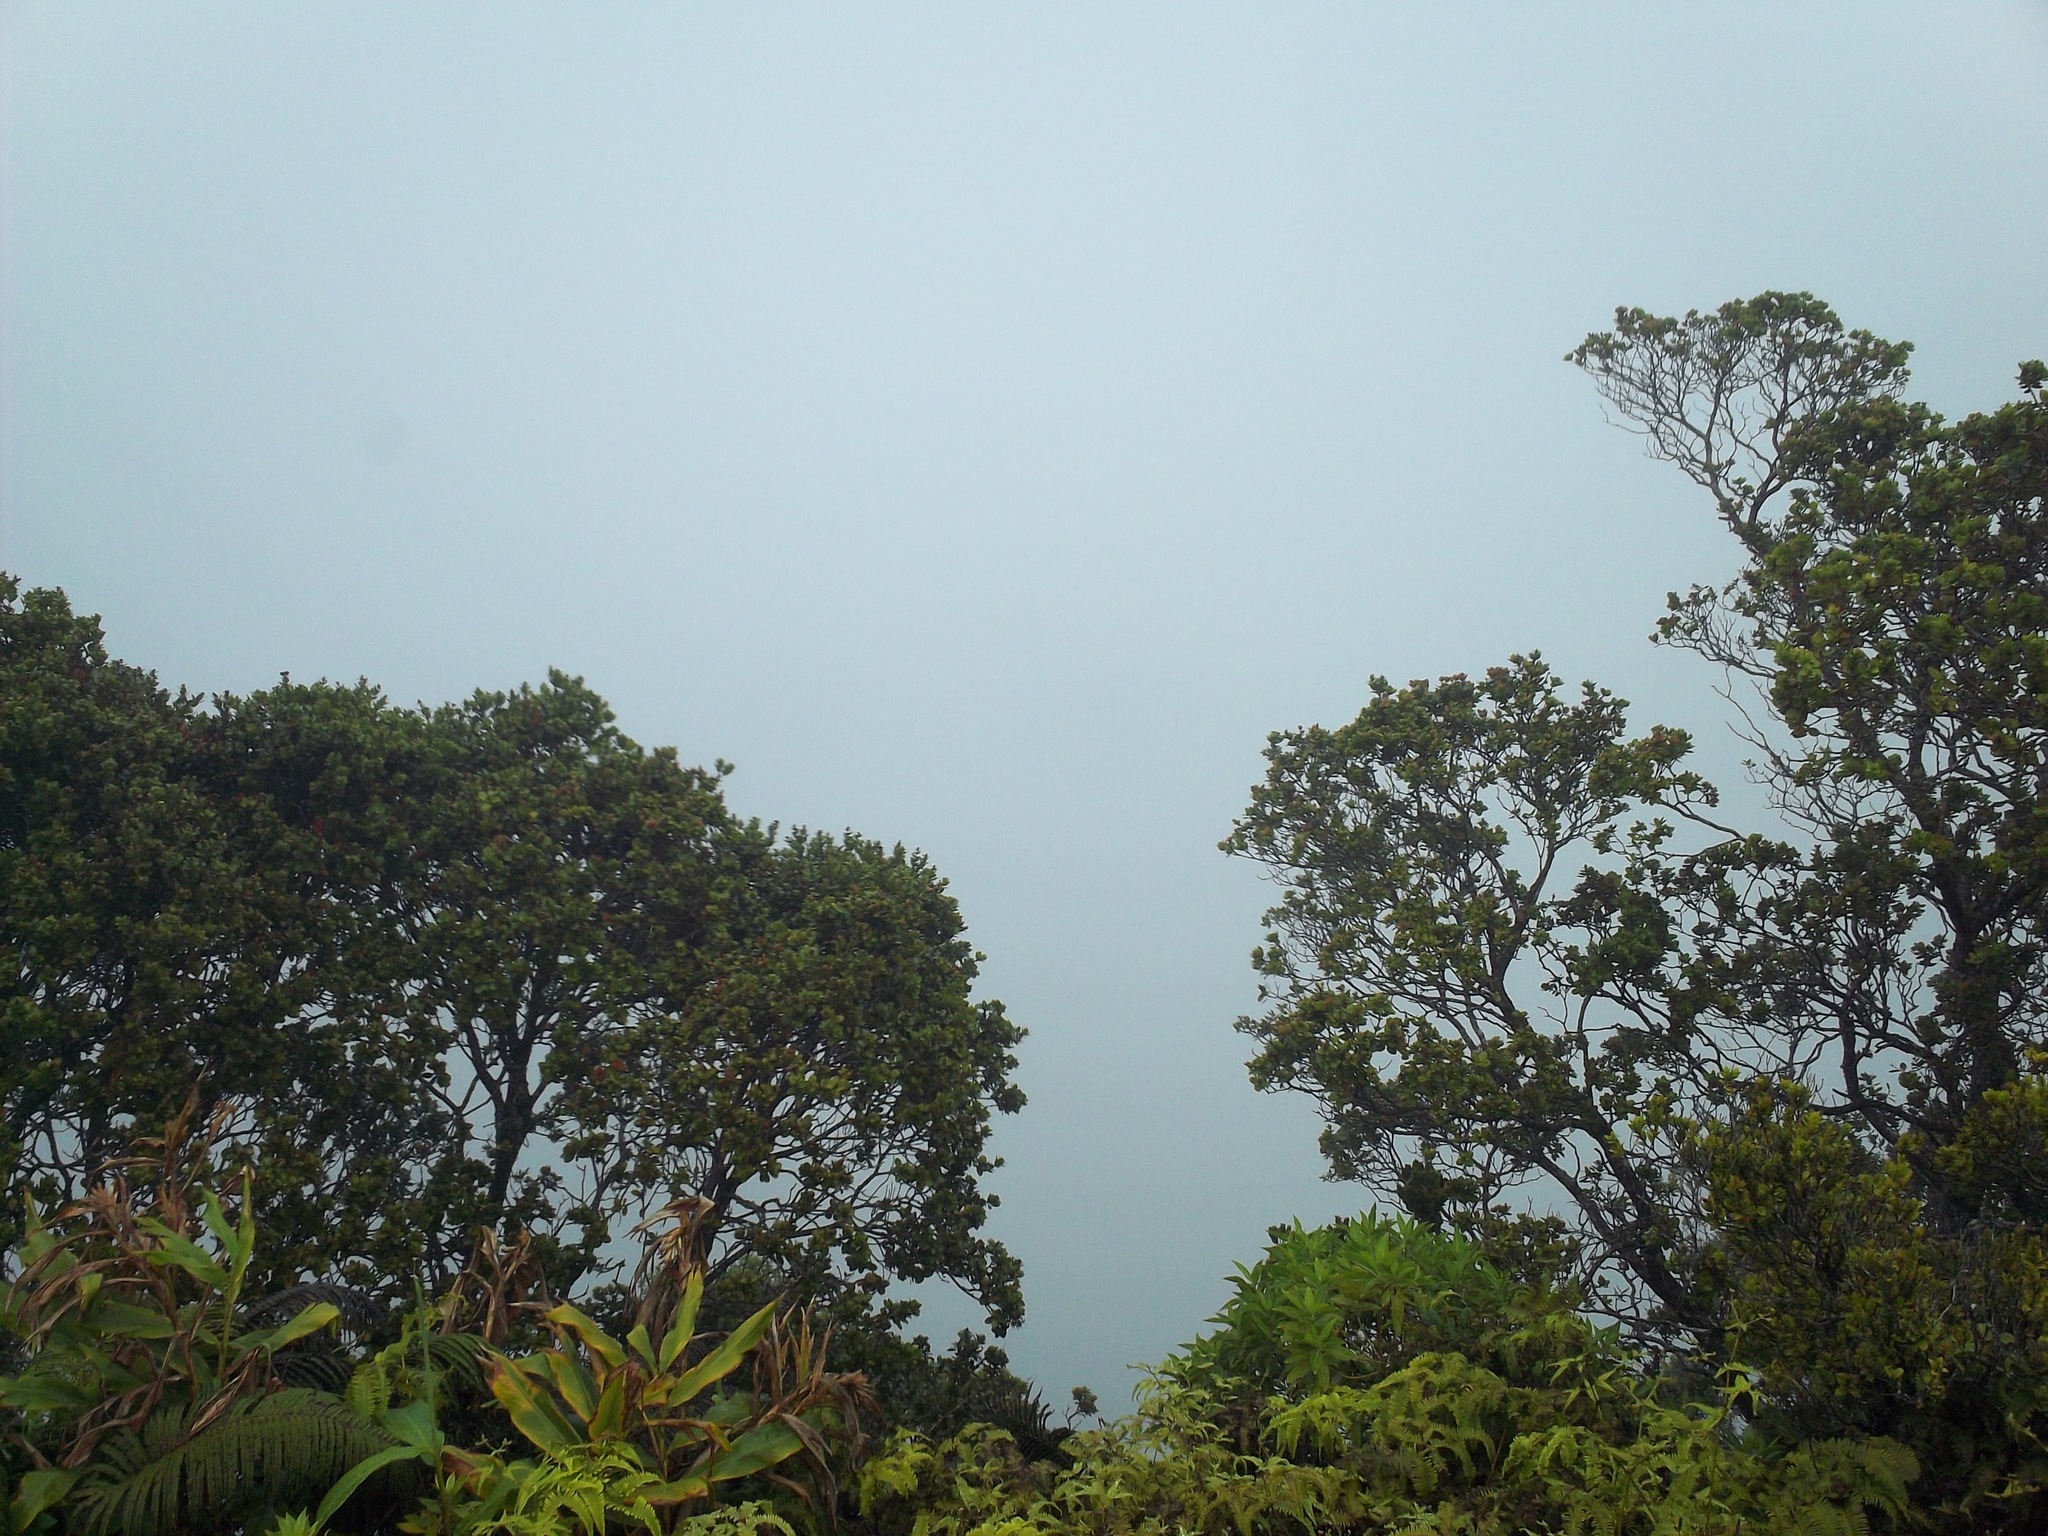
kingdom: Plantae
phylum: Tracheophyta
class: Magnoliopsida
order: Myrtales
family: Myrtaceae
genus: Metrosideros
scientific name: Metrosideros polymorpha
